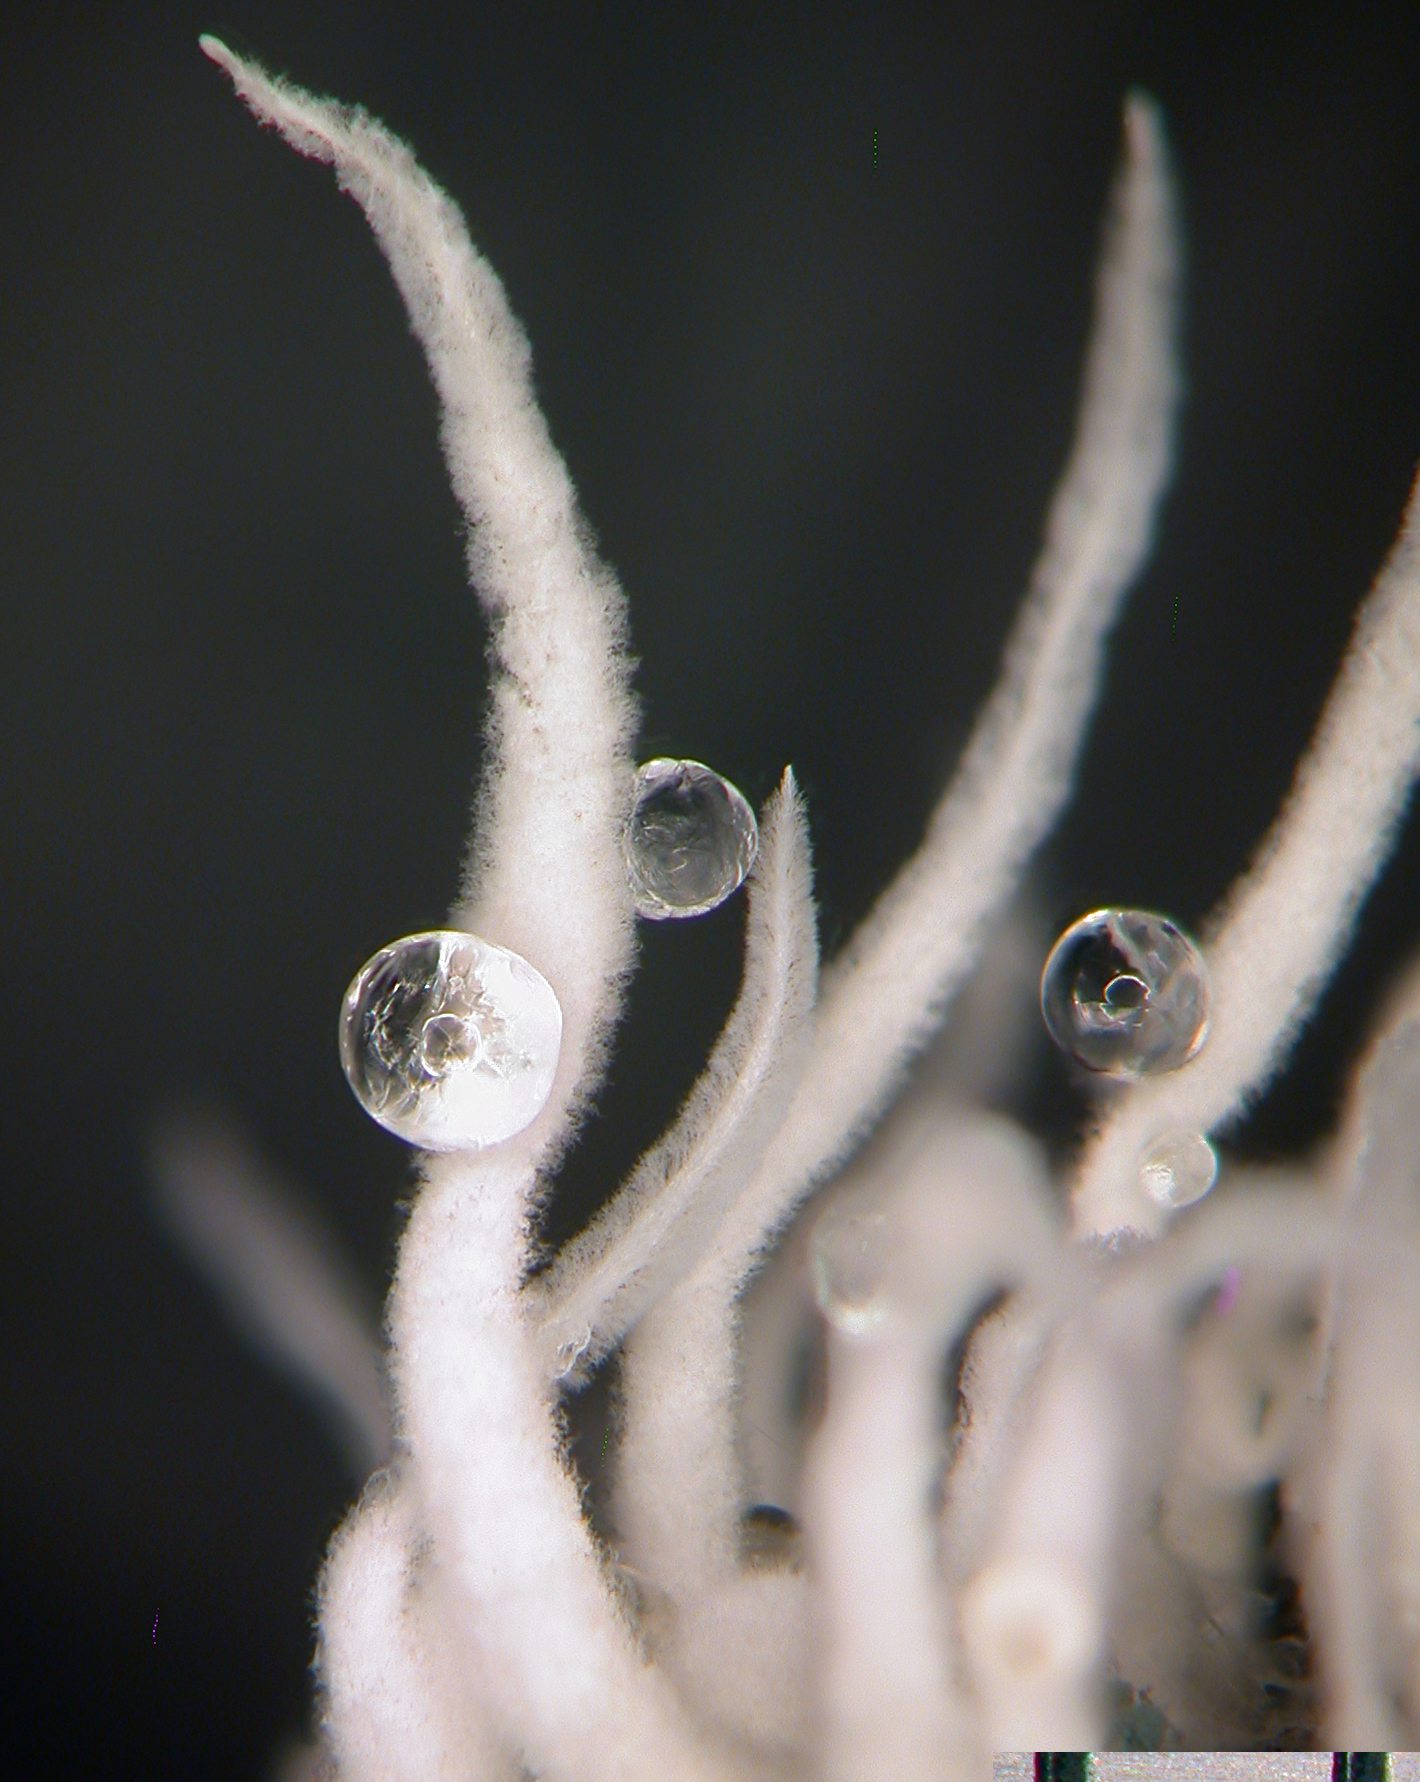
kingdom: Fungi
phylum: Ascomycota
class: Sordariomycetes
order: Hypocreales
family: Cordycipitaceae
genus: Beauveria
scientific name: Beauveria felina
